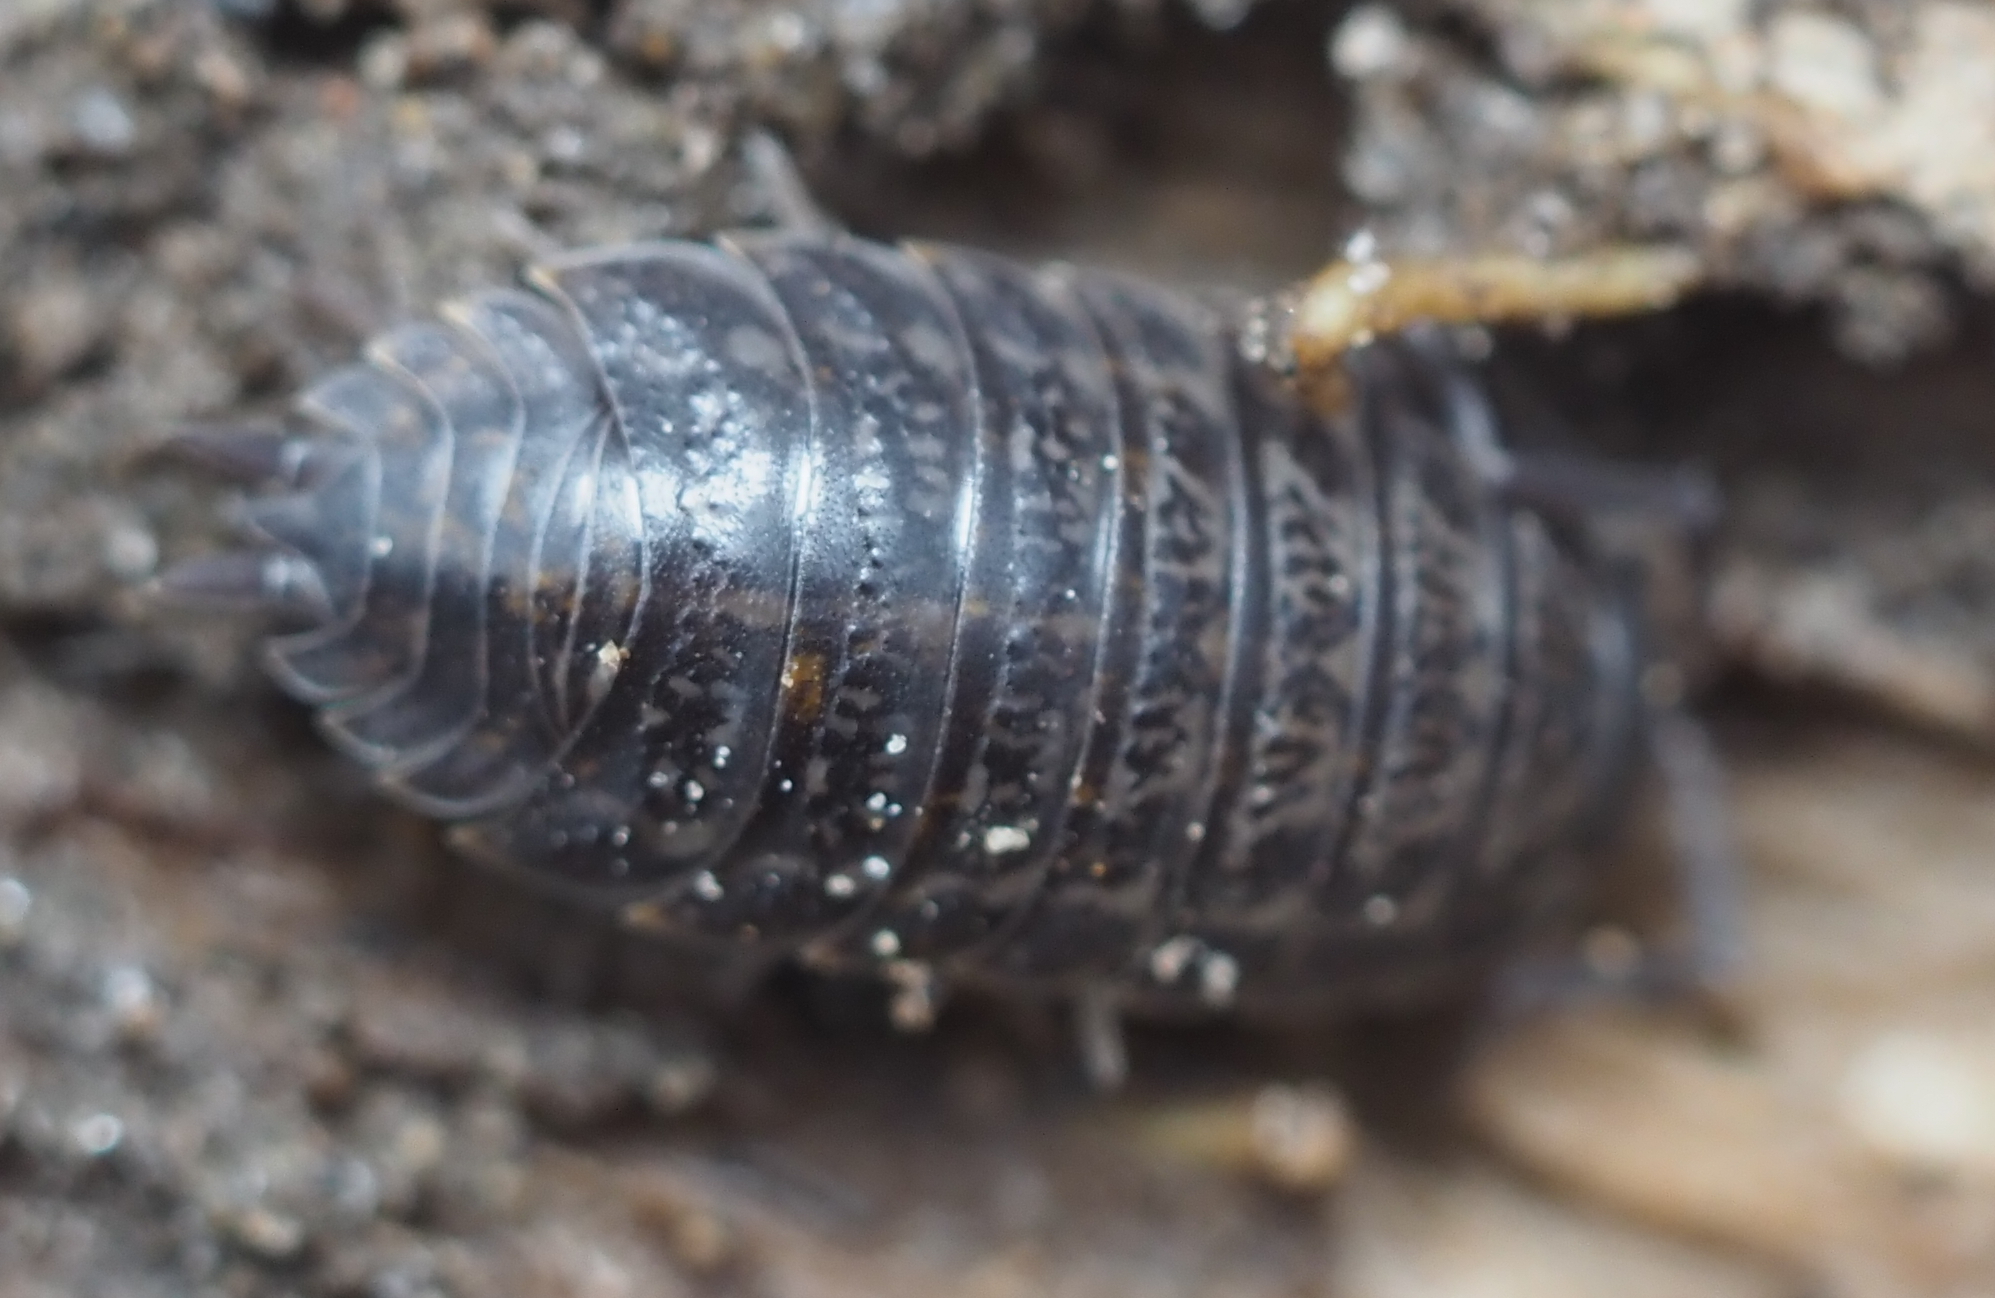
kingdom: Animalia
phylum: Arthropoda
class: Malacostraca
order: Isopoda
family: Trachelipodidae
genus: Trachelipus
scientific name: Trachelipus rathkii
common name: Isopod
